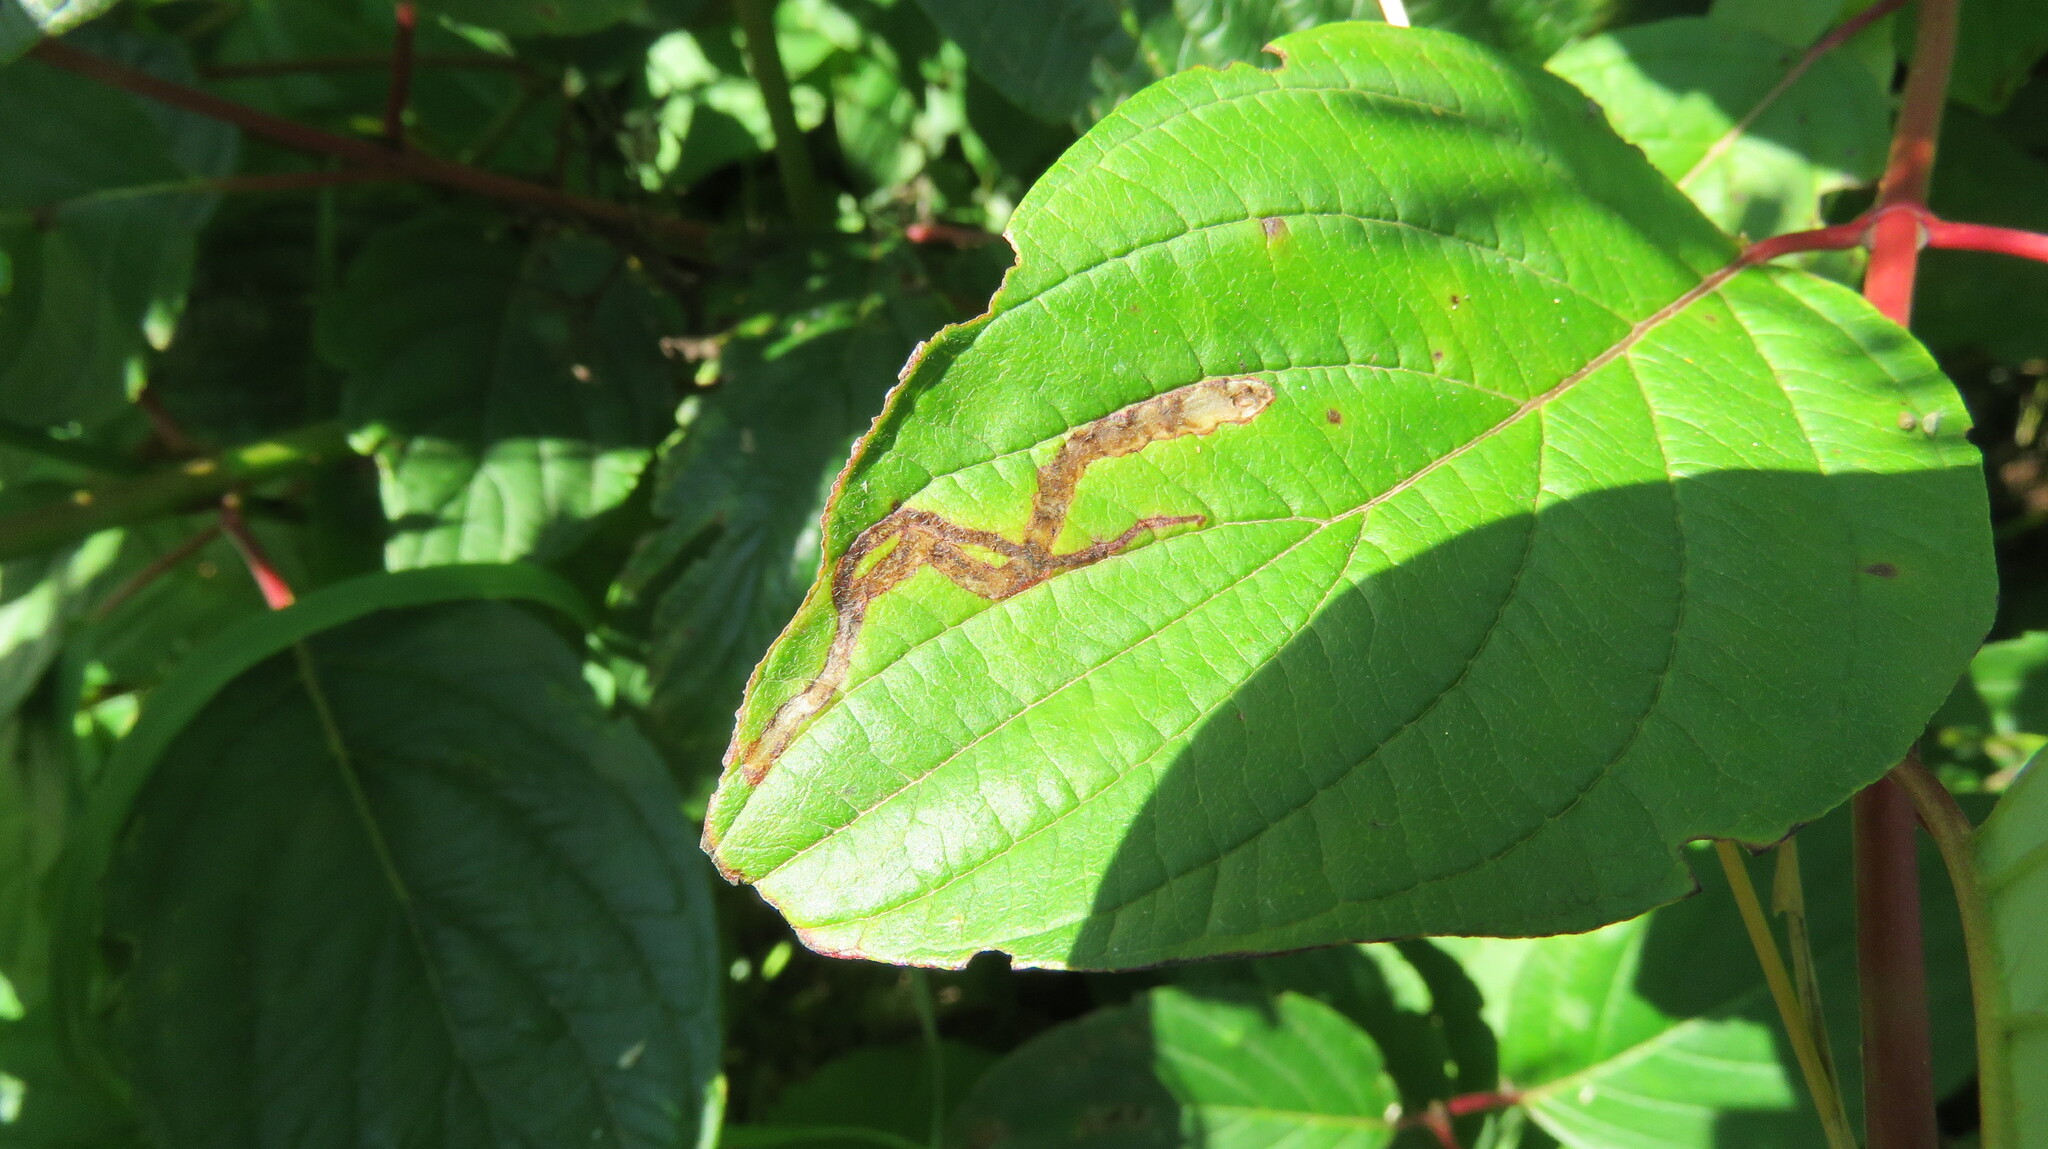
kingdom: Animalia
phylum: Arthropoda
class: Insecta
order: Diptera
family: Agromyzidae
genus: Phytomyza
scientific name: Phytomyza agromyzina
